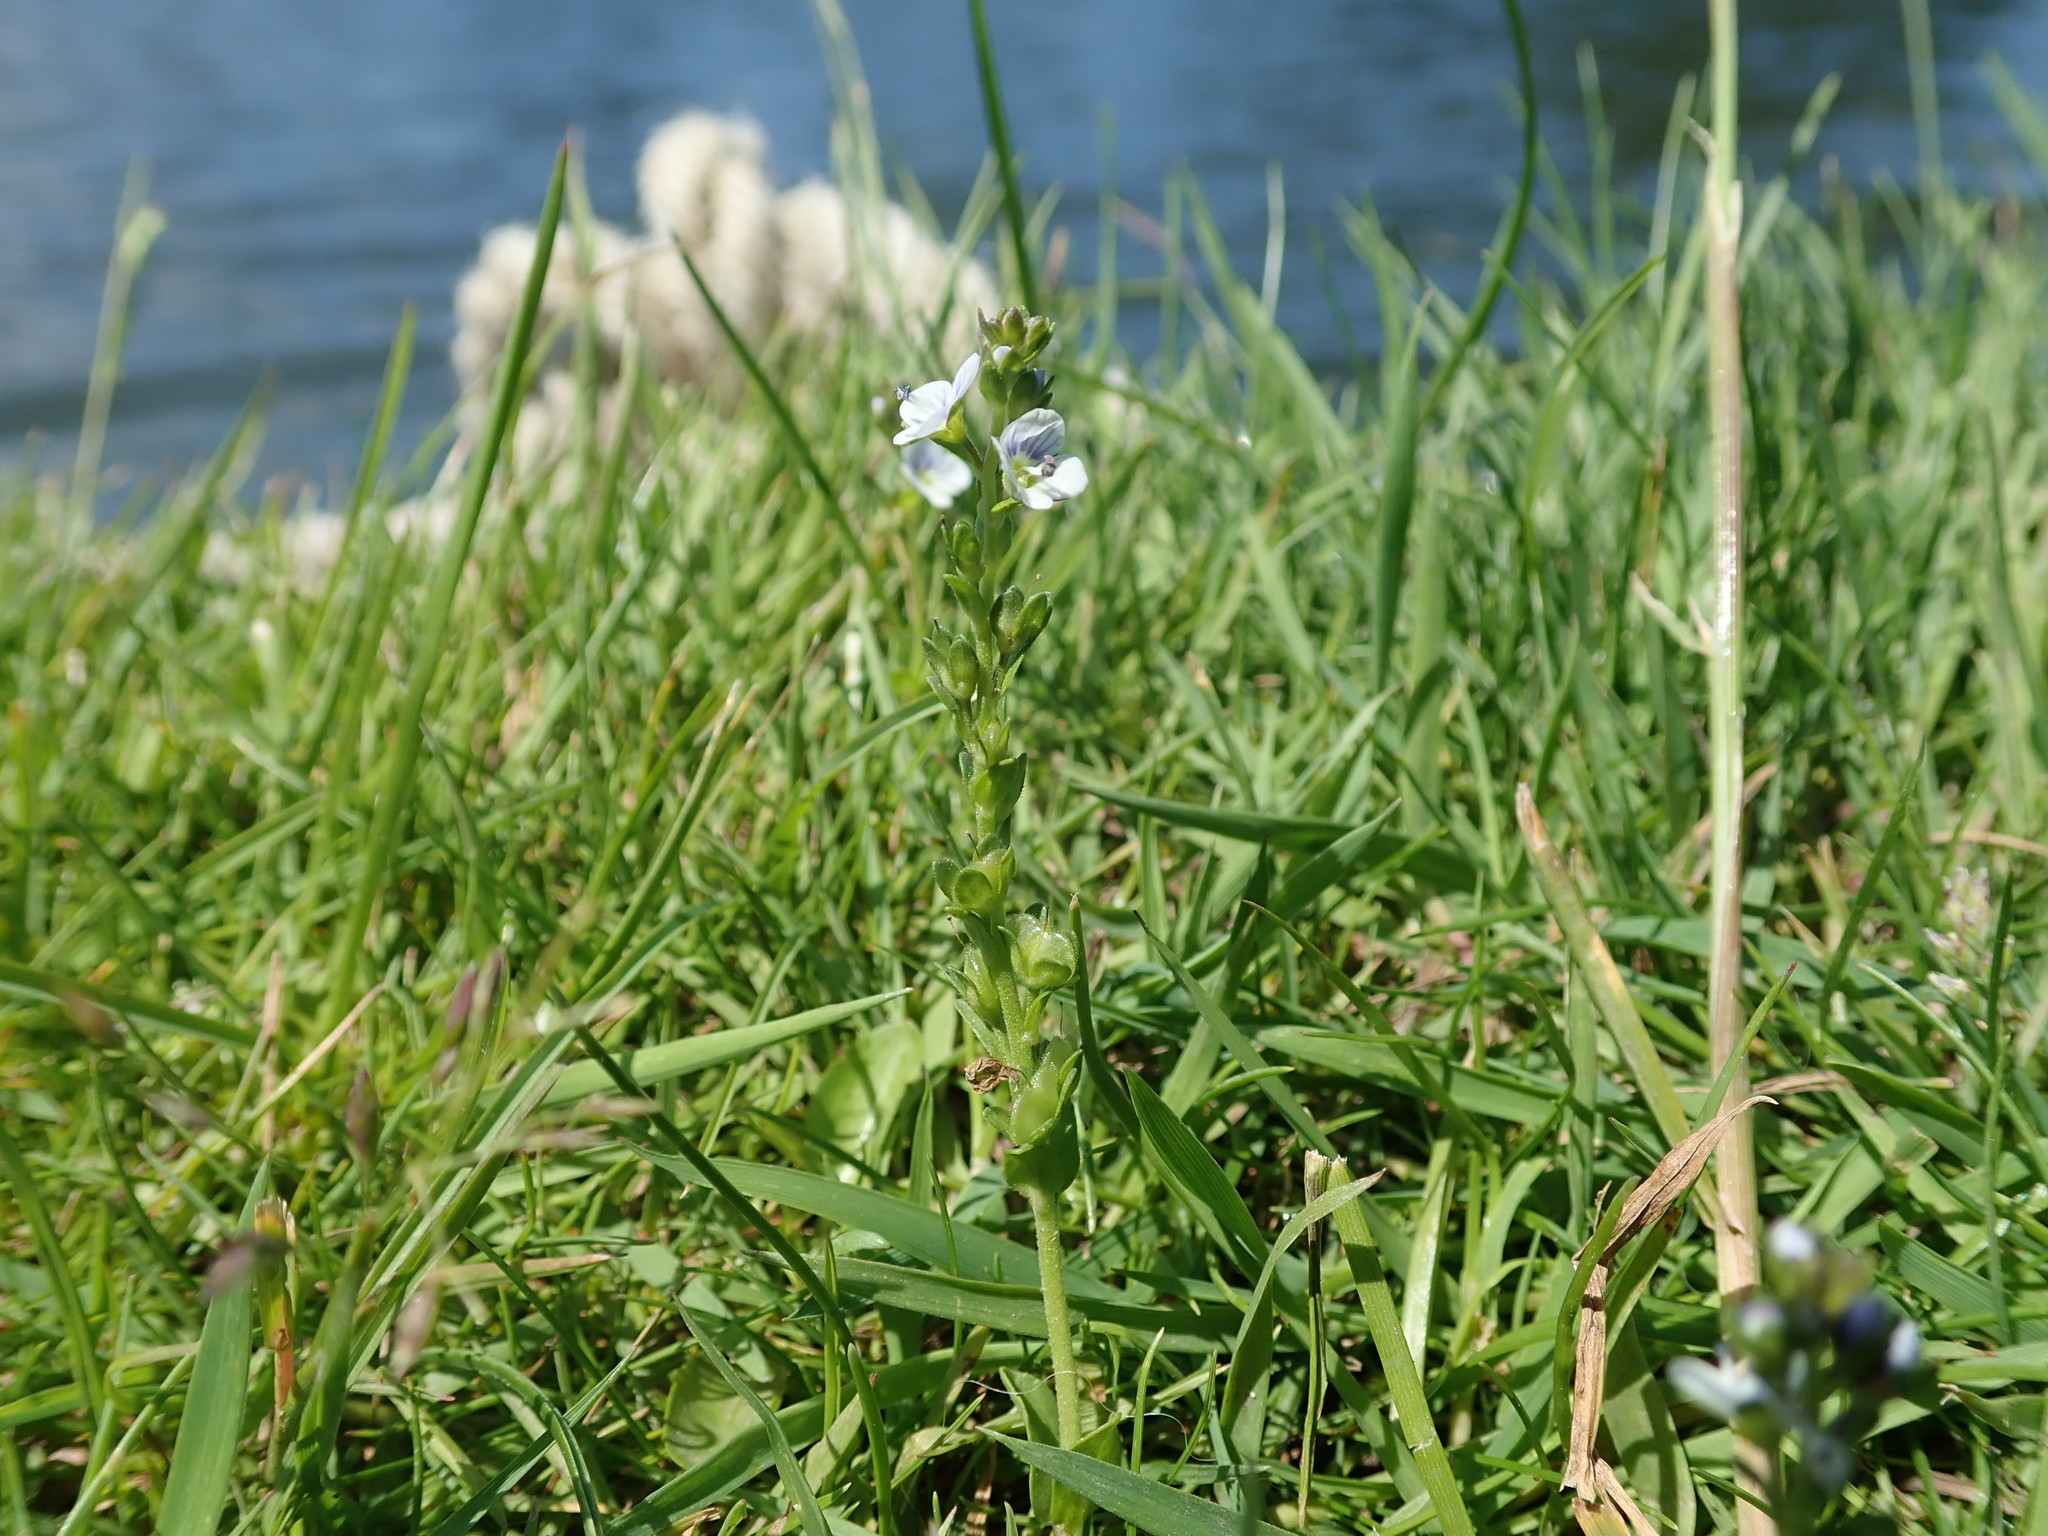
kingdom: Plantae
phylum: Tracheophyta
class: Magnoliopsida
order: Lamiales
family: Plantaginaceae
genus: Veronica
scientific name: Veronica serpyllifolia
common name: Thyme-leaved speedwell
